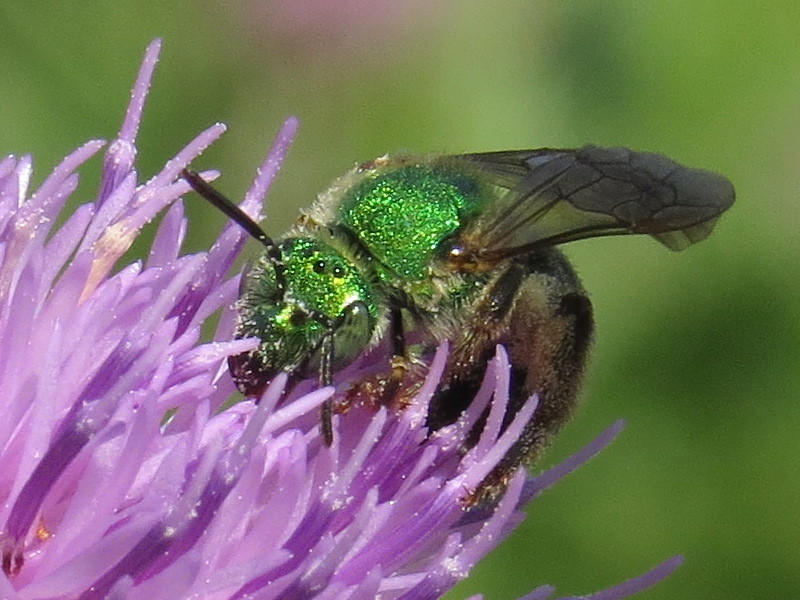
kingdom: Animalia
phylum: Arthropoda
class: Insecta
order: Hymenoptera
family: Halictidae
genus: Agapostemon
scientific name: Agapostemon virescens
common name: Bicolored striped sweat bee
